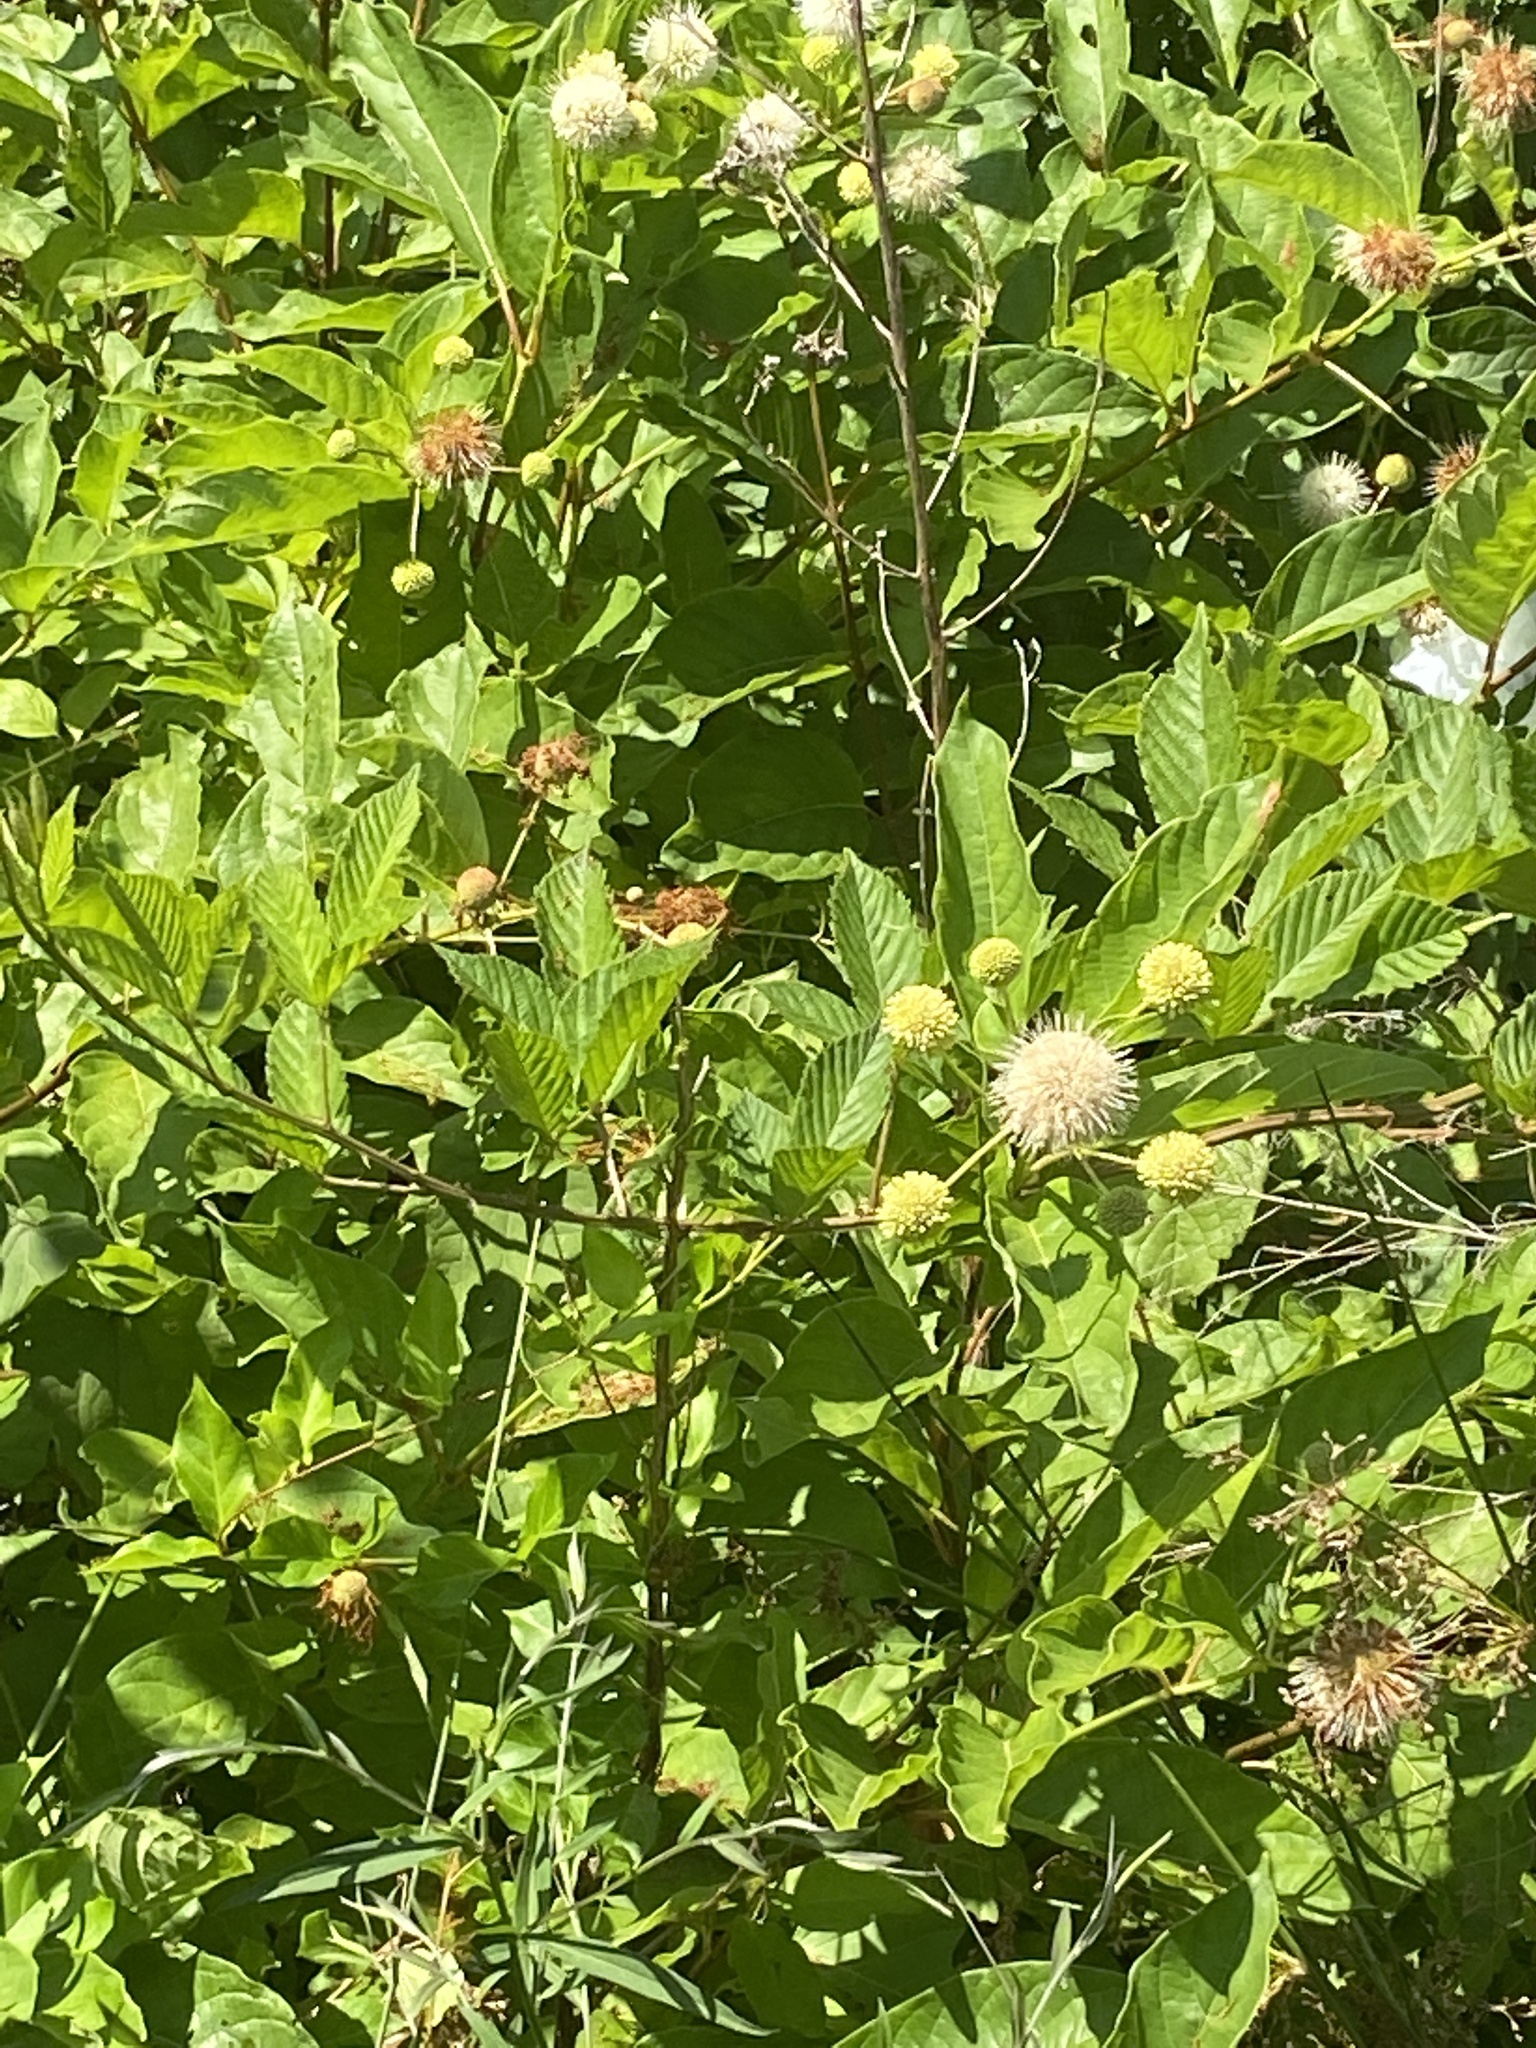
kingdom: Plantae
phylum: Tracheophyta
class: Magnoliopsida
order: Gentianales
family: Rubiaceae
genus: Cephalanthus
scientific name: Cephalanthus occidentalis
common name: Button-willow
